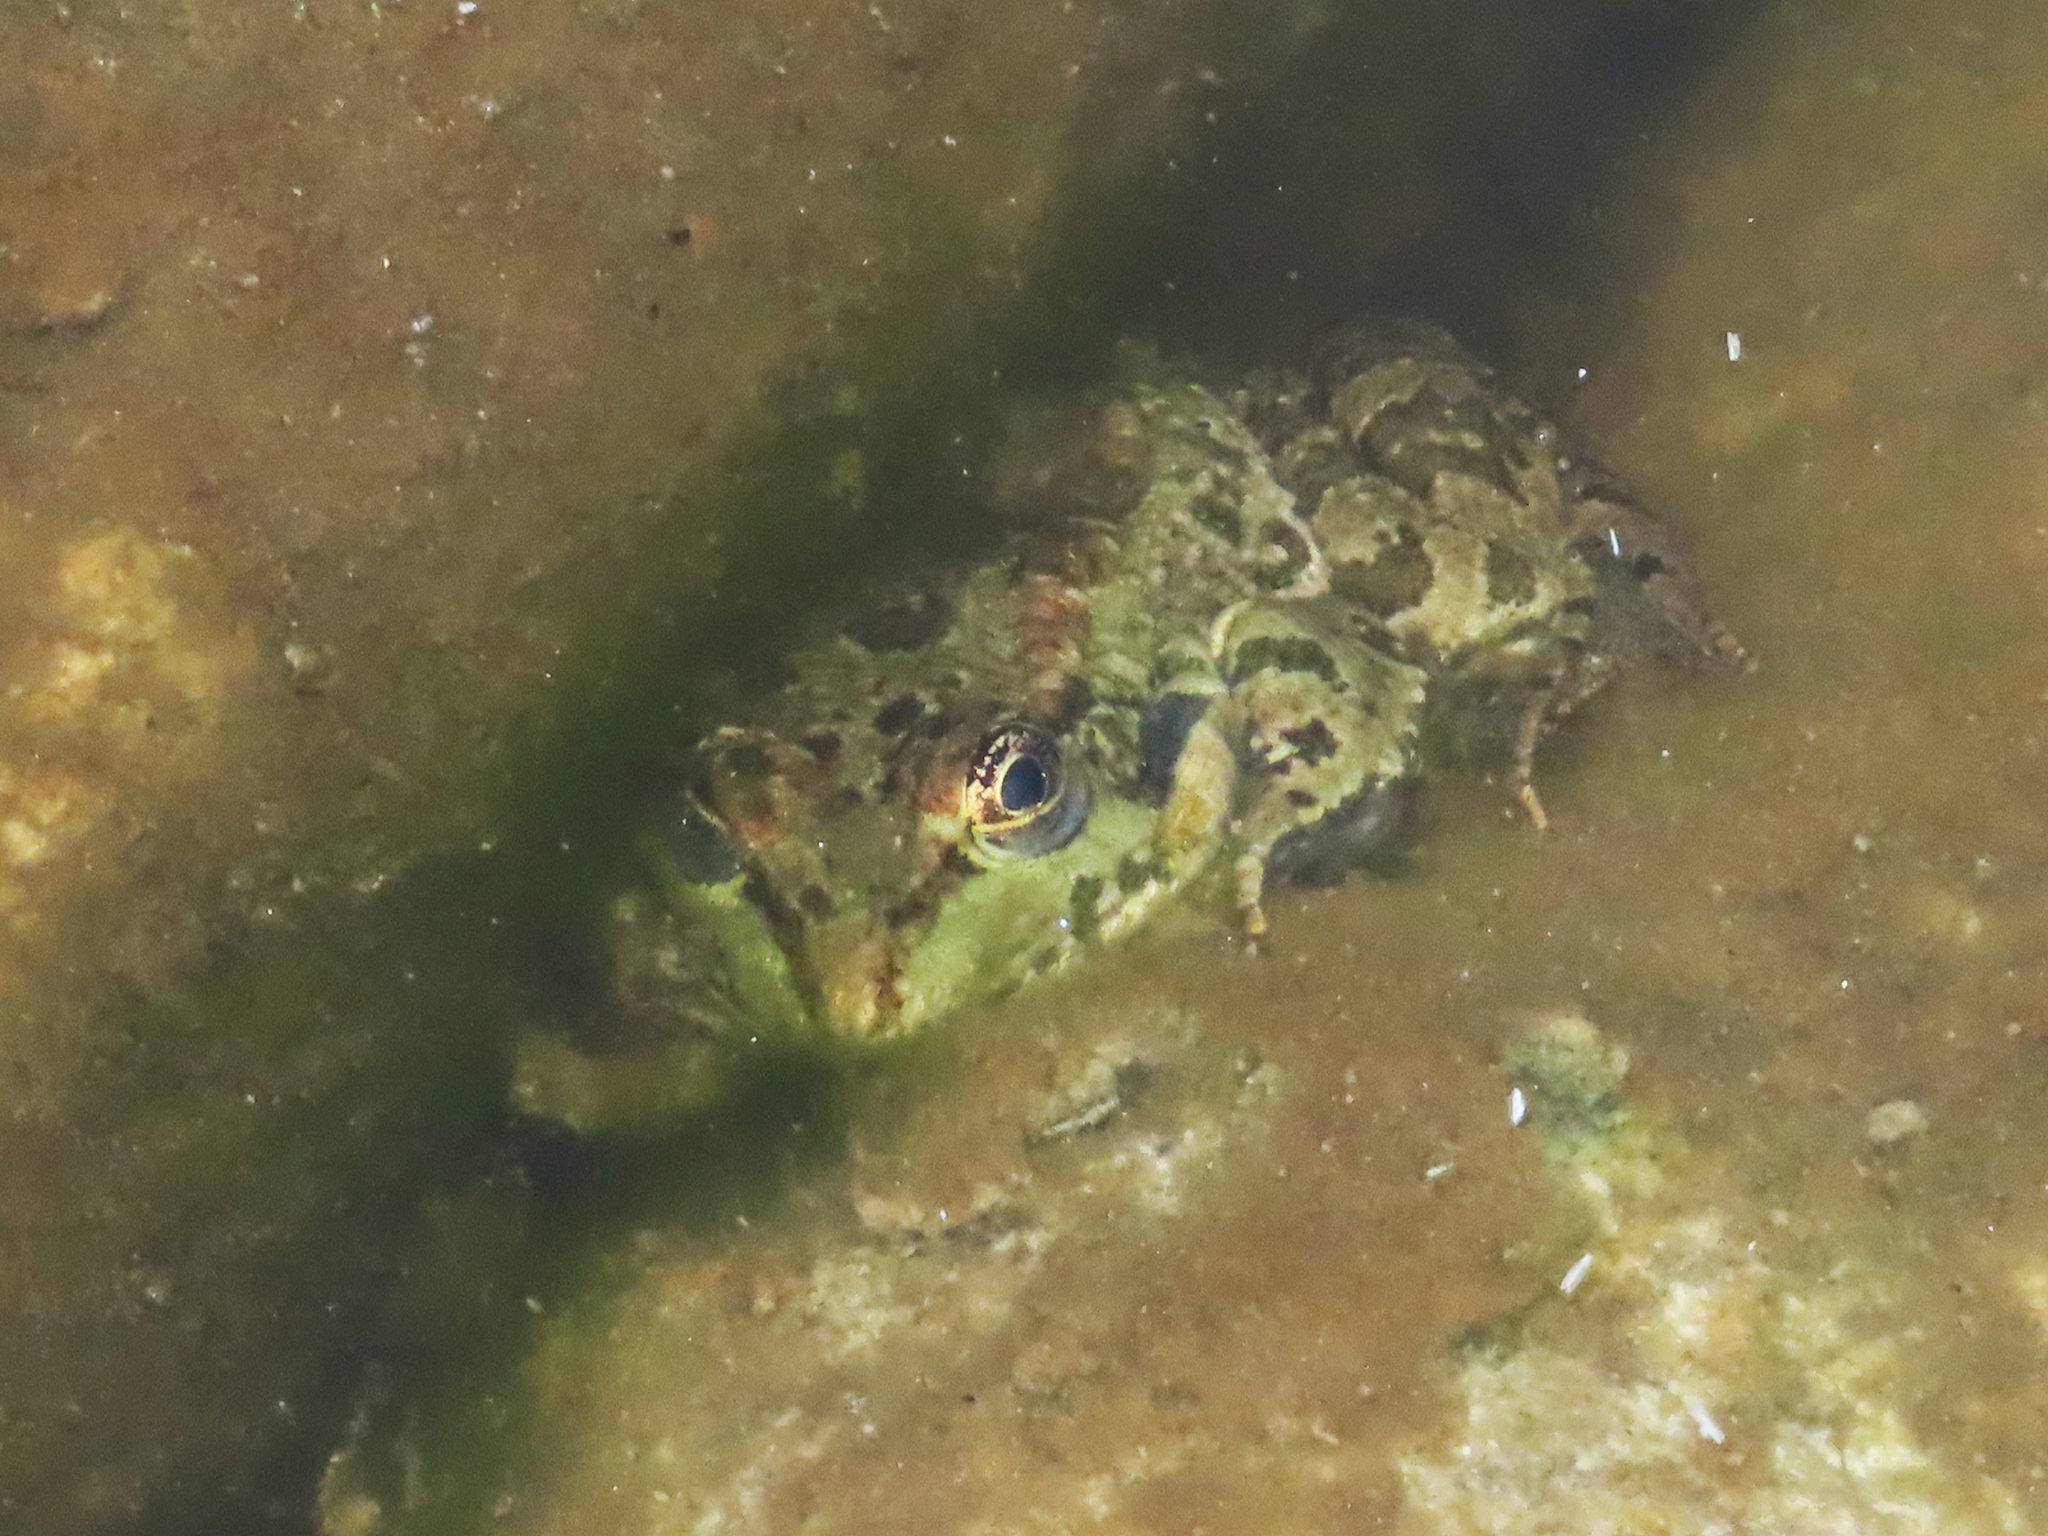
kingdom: Animalia
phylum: Chordata
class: Amphibia
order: Anura
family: Ranidae
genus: Pelophylax
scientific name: Pelophylax ridibundus
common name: Marsh frog
